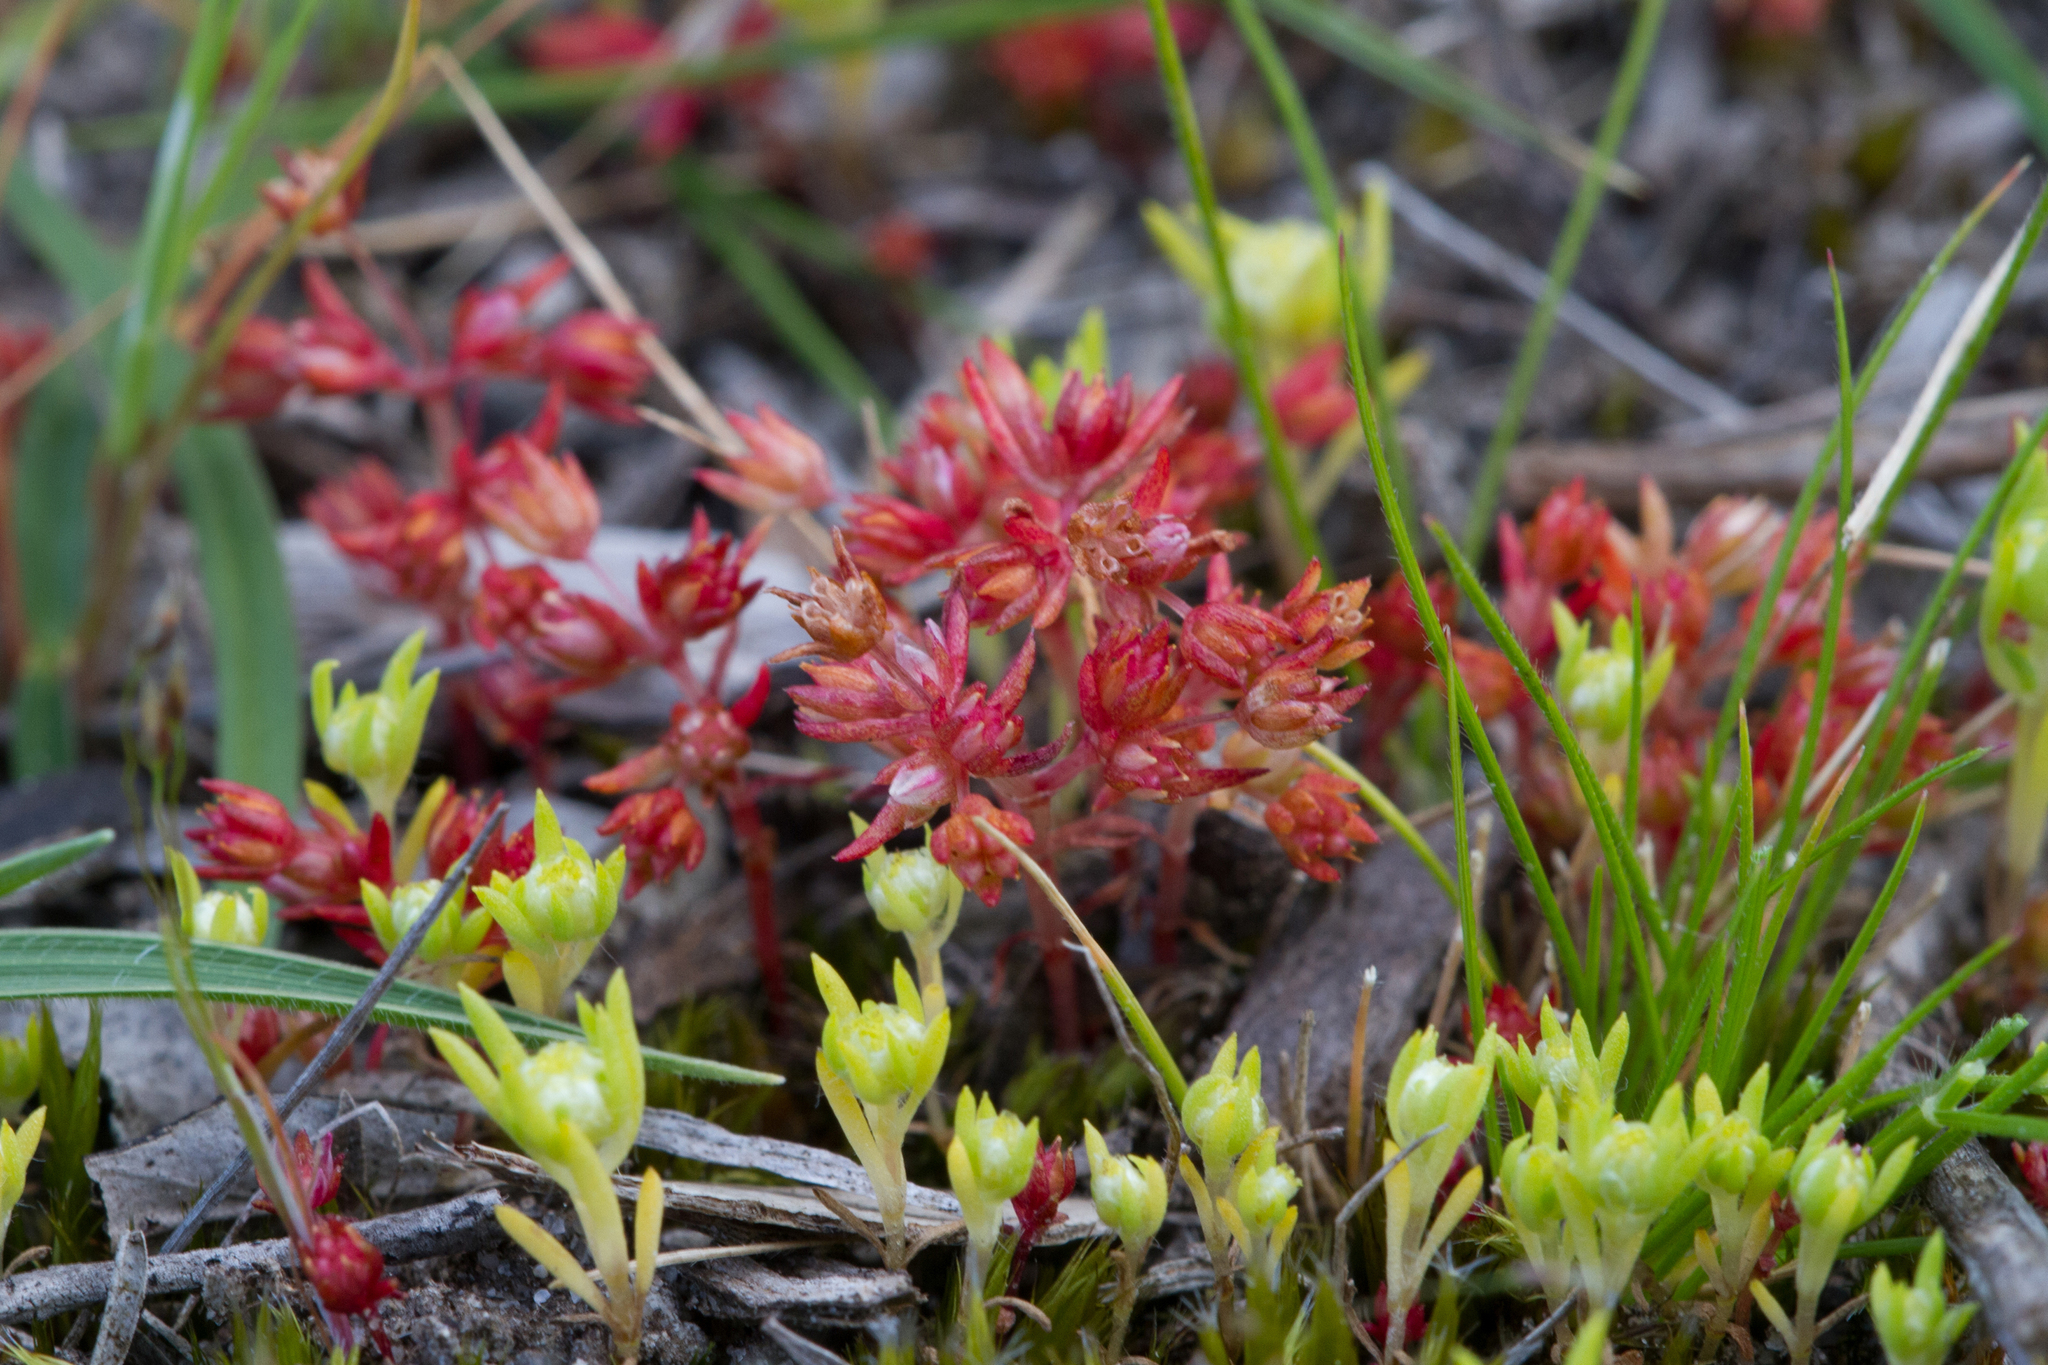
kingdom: Plantae
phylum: Tracheophyta
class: Magnoliopsida
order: Saxifragales
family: Crassulaceae
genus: Crassula
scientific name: Crassula decumbens
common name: Scilly pigmyweed
